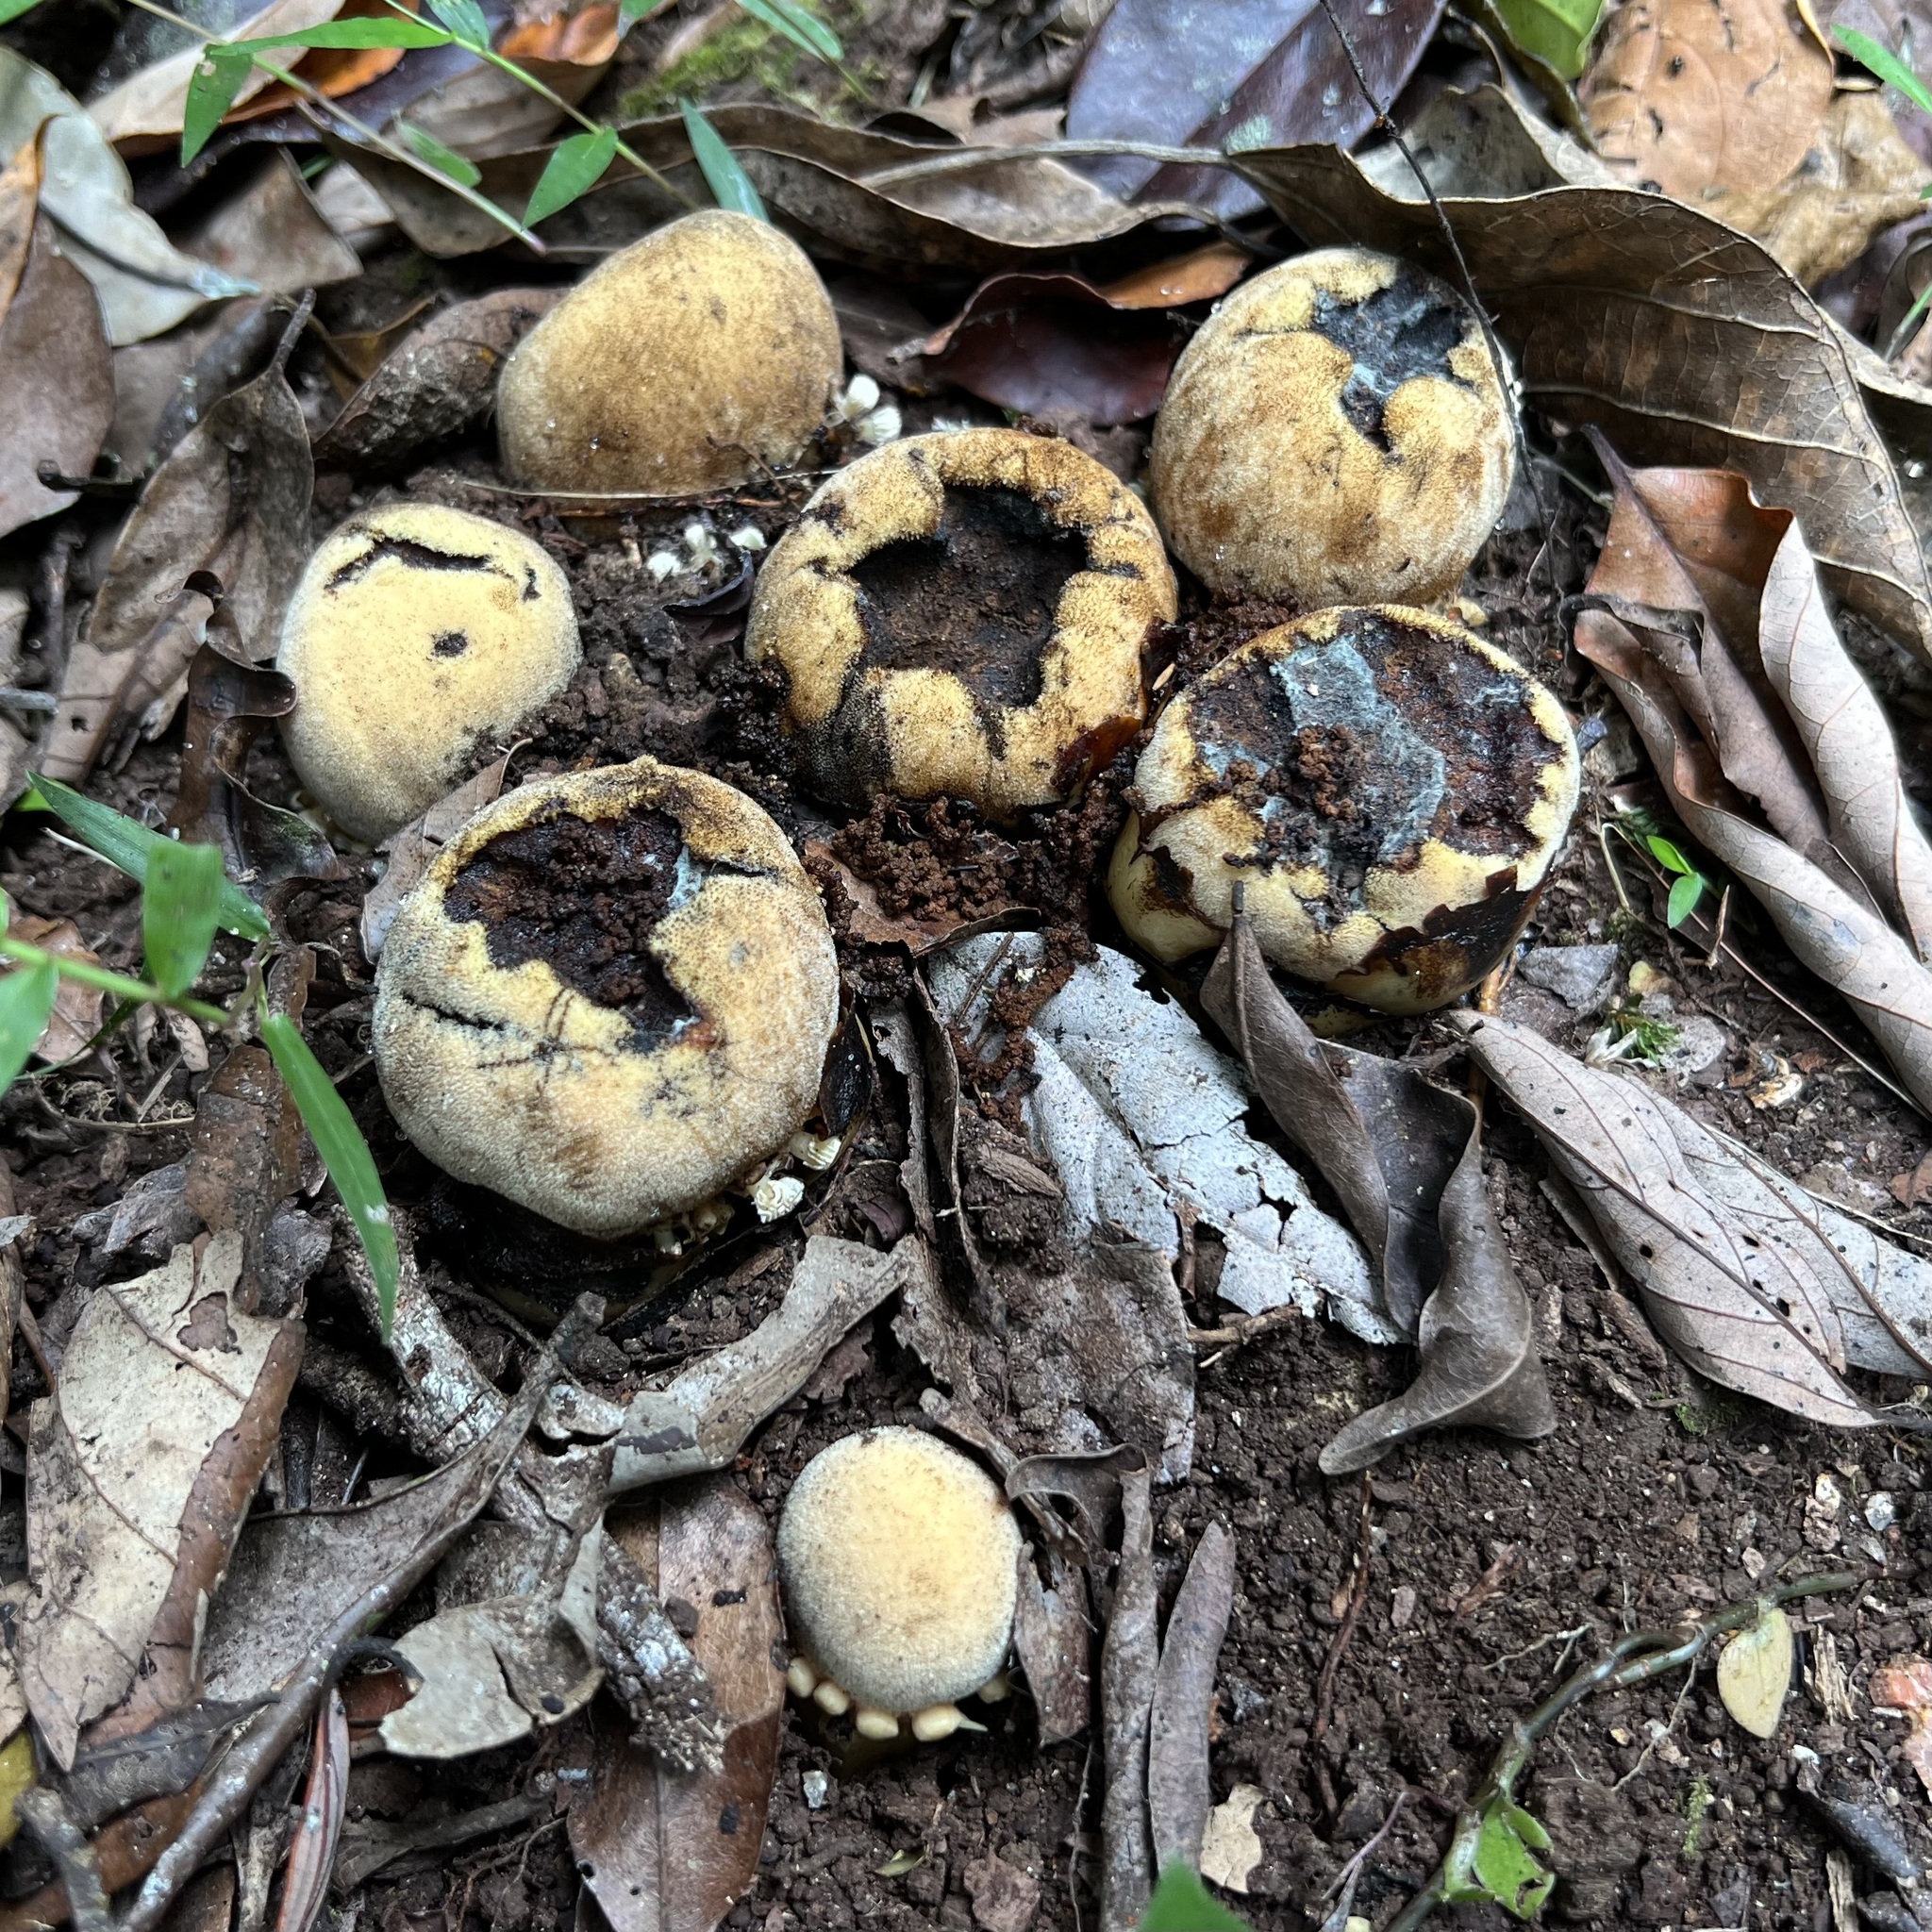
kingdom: Plantae
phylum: Tracheophyta
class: Magnoliopsida
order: Santalales
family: Balanophoraceae
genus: Balanophora
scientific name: Balanophora fungosa
